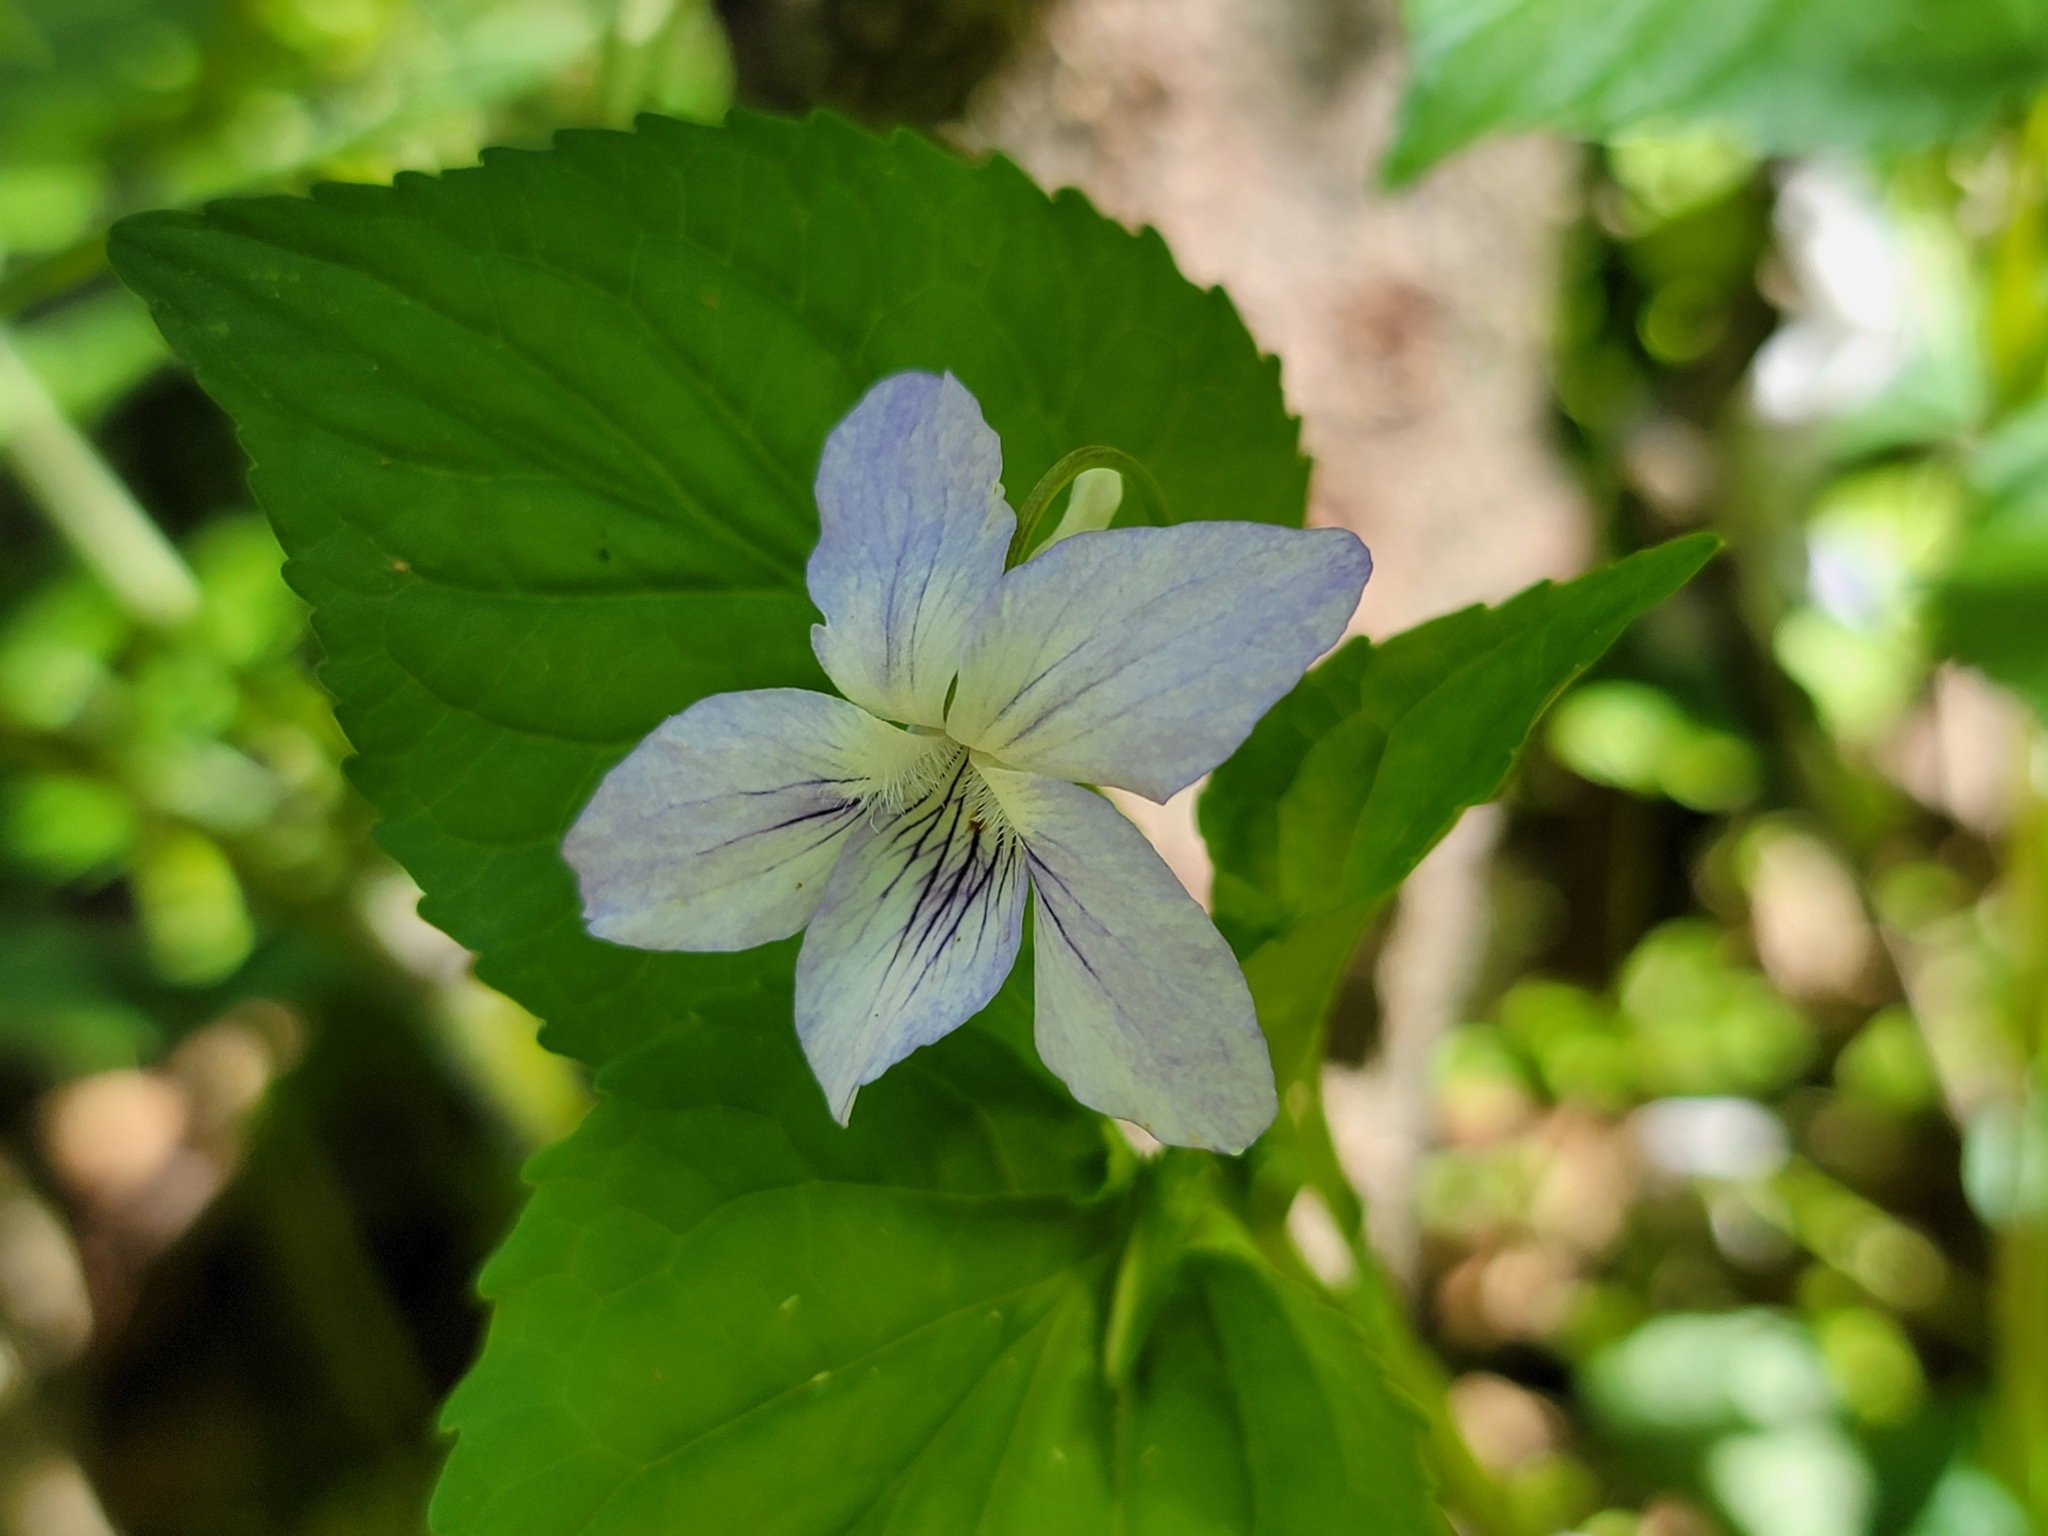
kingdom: Plantae
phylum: Tracheophyta
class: Magnoliopsida
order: Malpighiales
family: Violaceae
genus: Viola
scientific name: Viola brauniae
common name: Braun's violet
